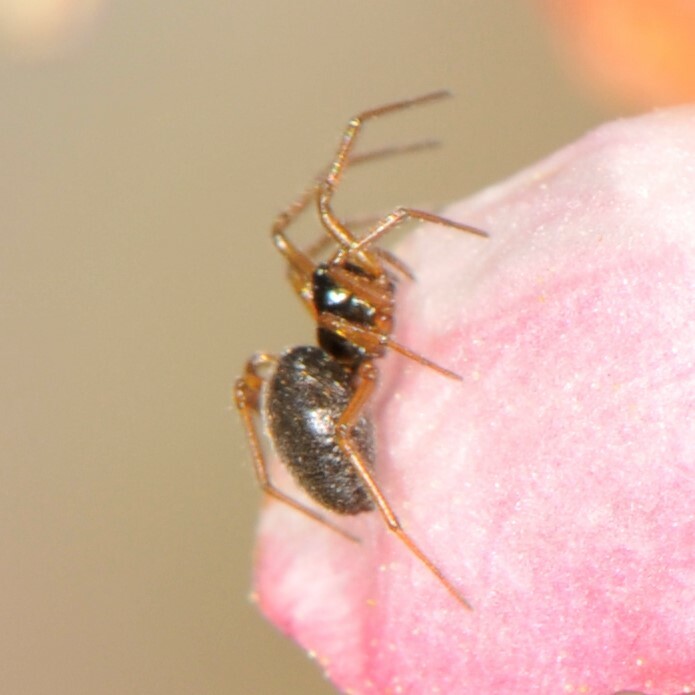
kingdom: Animalia
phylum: Arthropoda
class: Arachnida
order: Araneae
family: Linyphiidae
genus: Erigone
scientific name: Erigone
